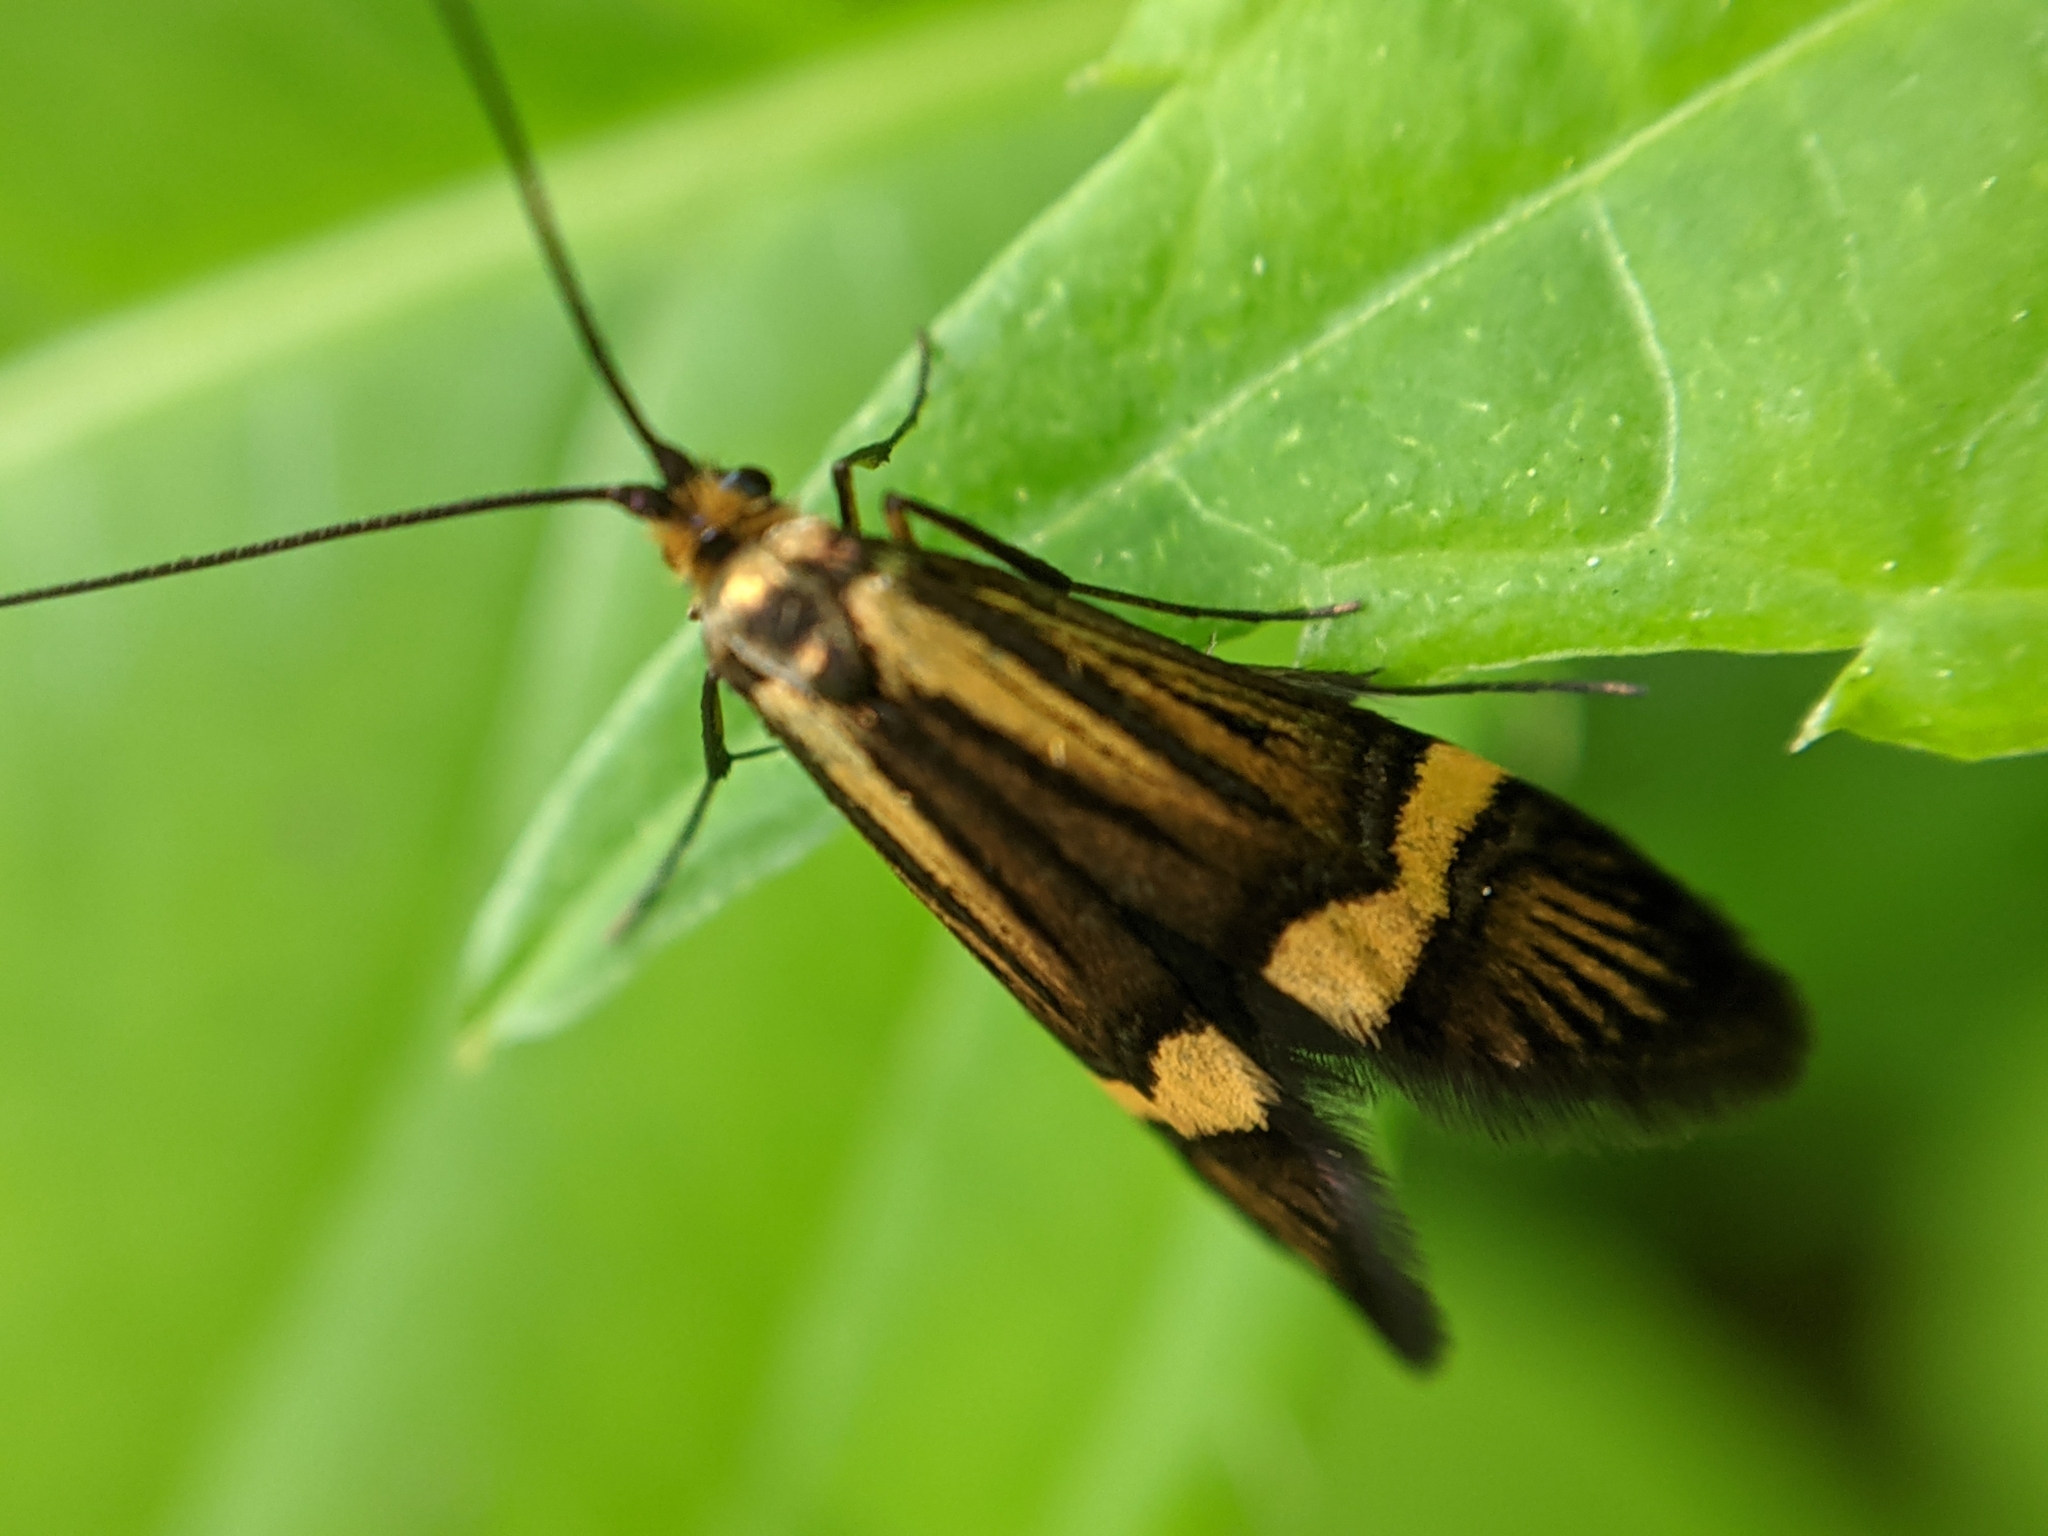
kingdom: Animalia
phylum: Arthropoda
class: Insecta
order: Lepidoptera
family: Adelidae
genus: Nemophora
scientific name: Nemophora
